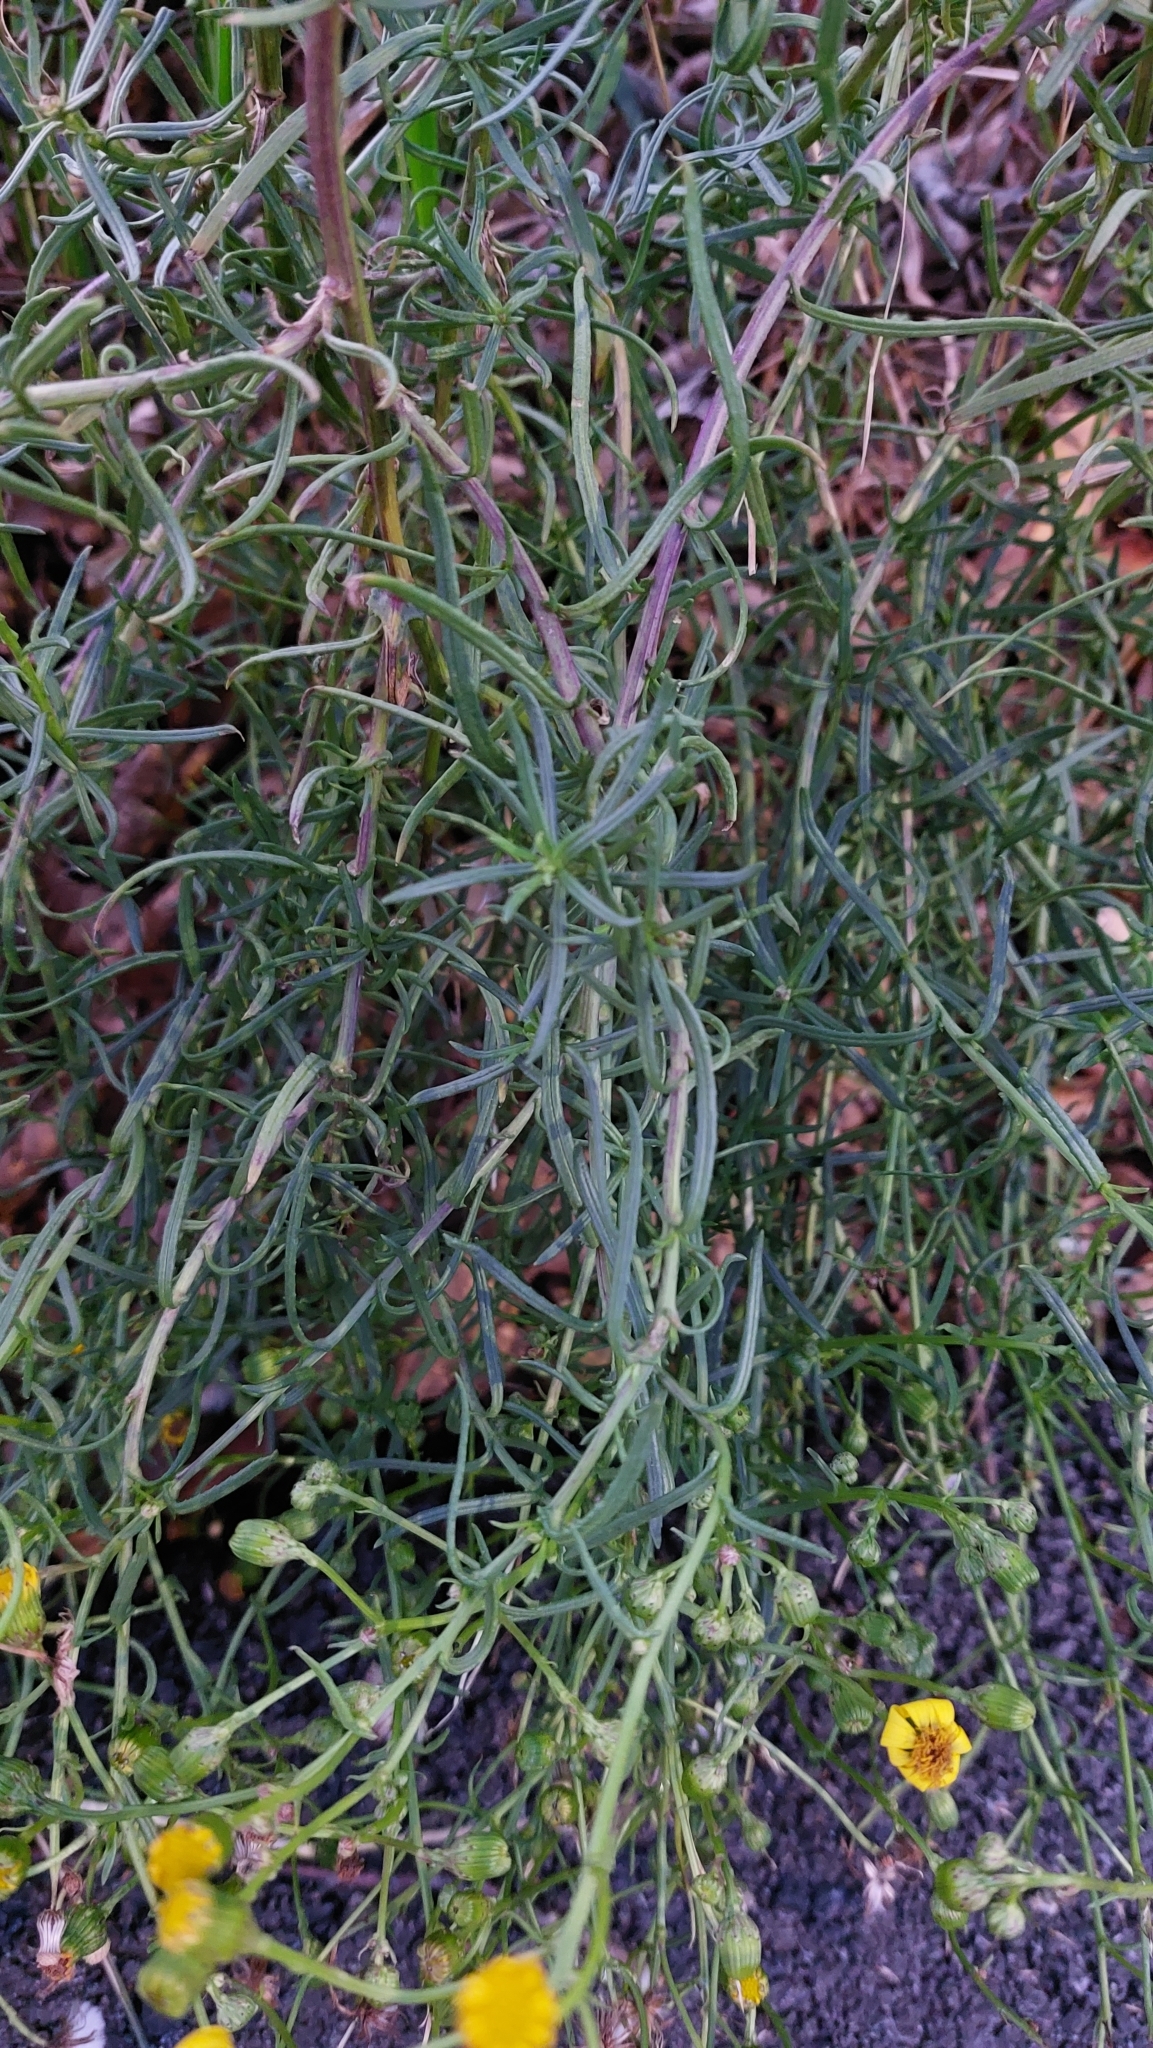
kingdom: Plantae
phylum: Tracheophyta
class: Magnoliopsida
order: Asterales
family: Asteraceae
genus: Senecio
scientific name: Senecio inaequidens
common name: Narrow-leaved ragwort
